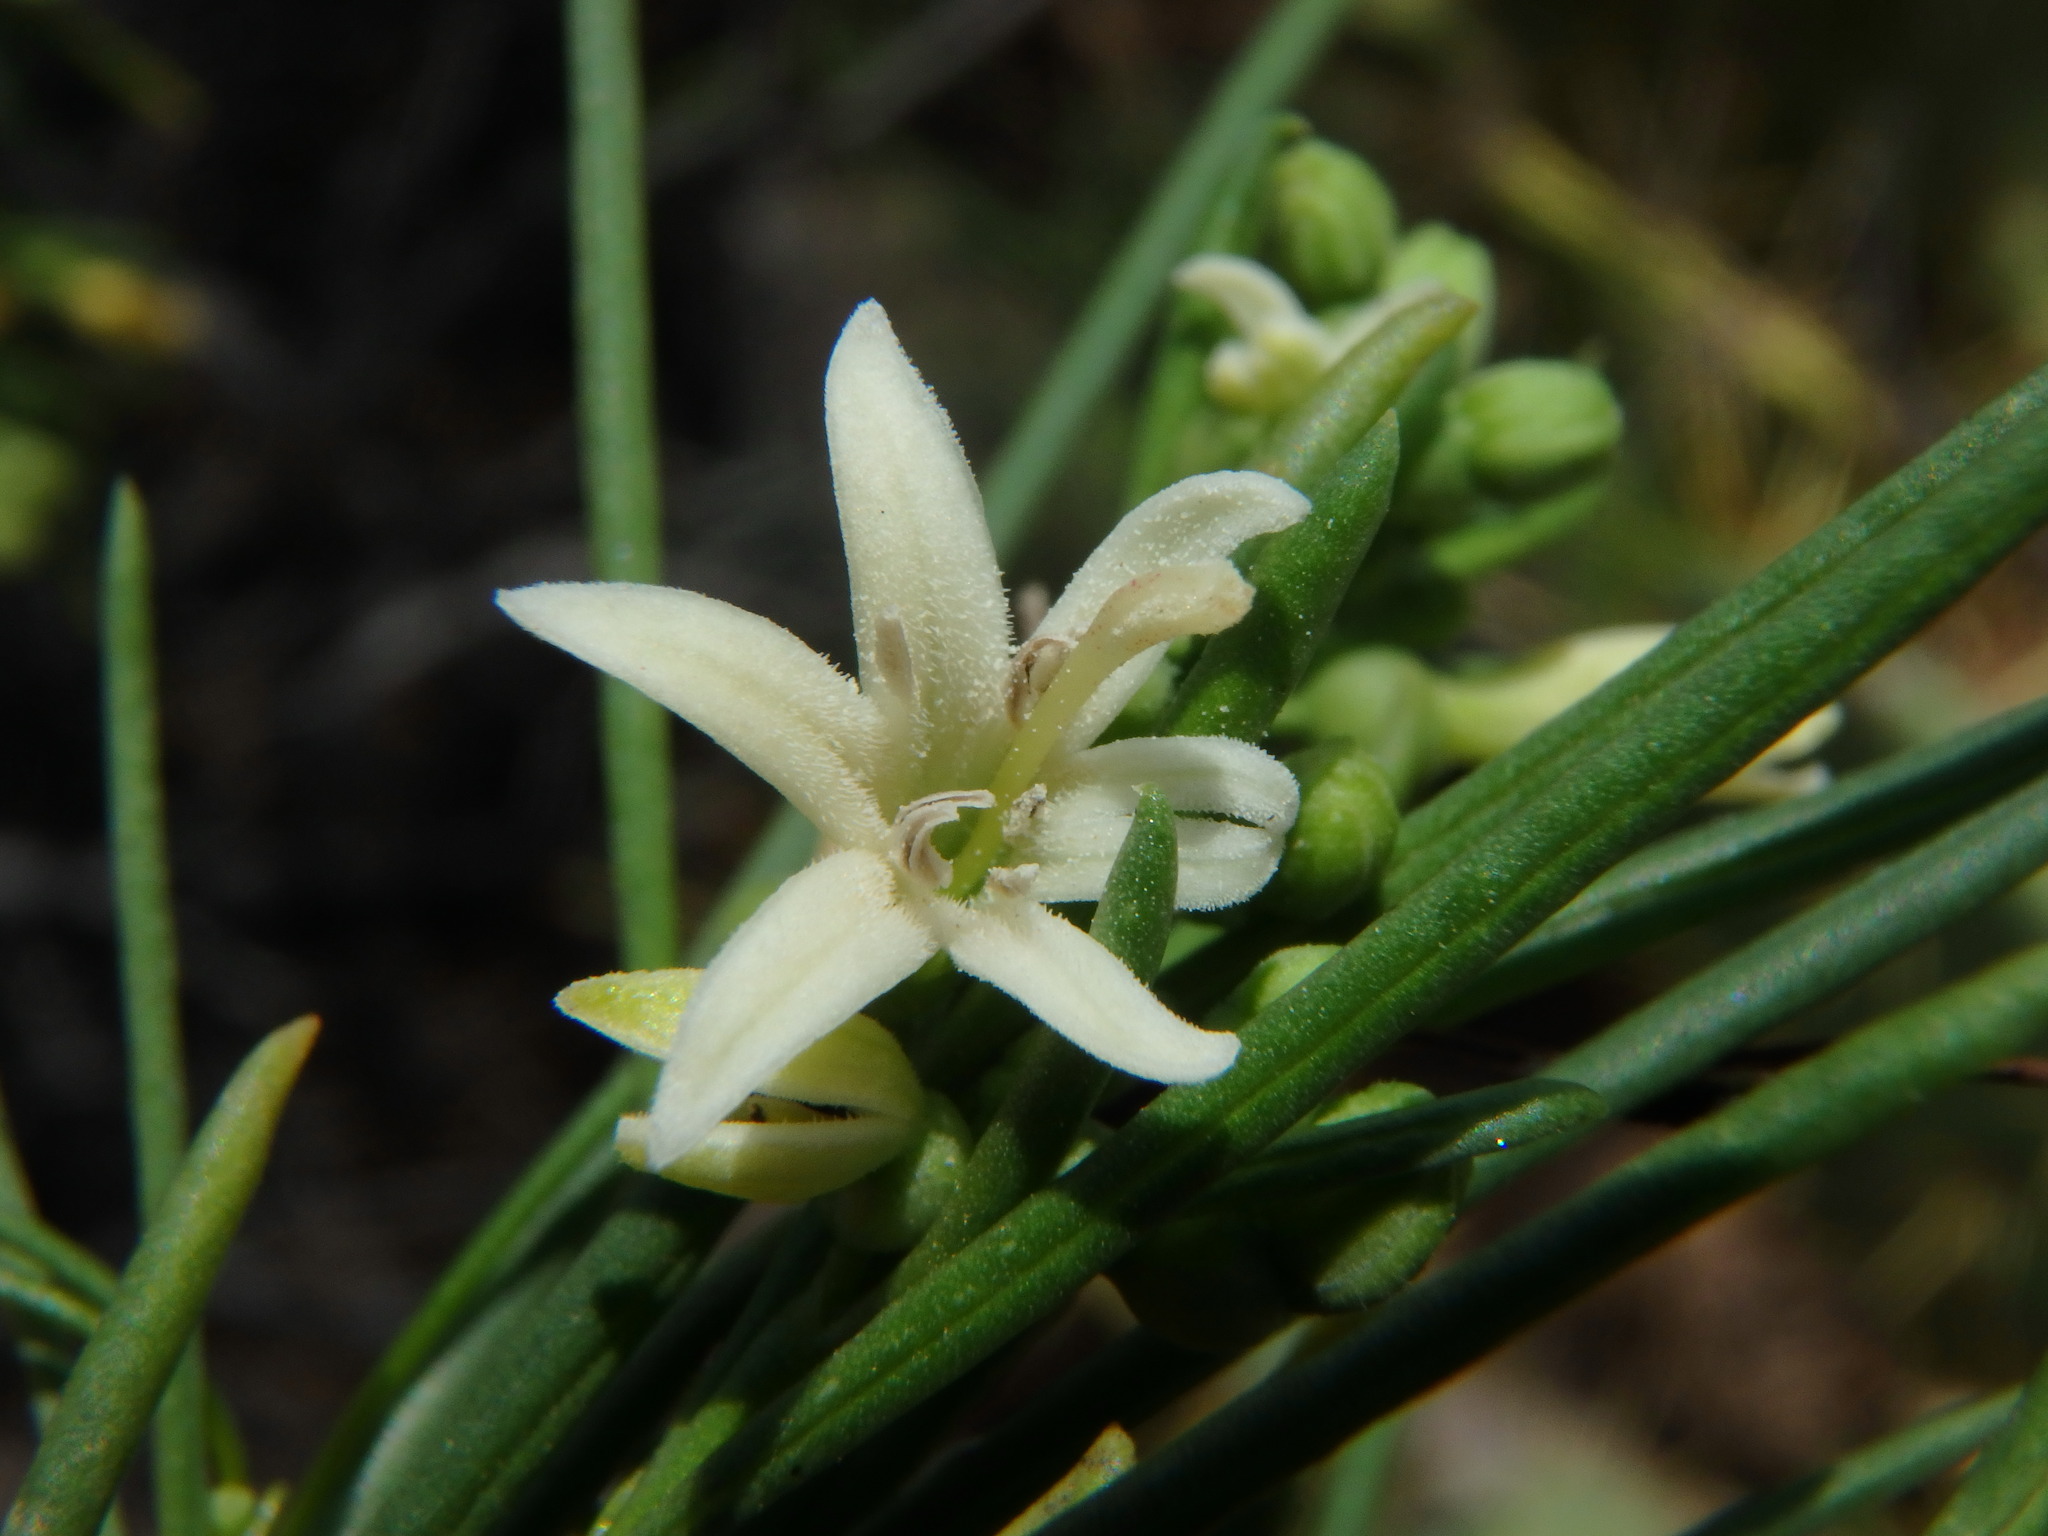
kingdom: Plantae
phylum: Tracheophyta
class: Magnoliopsida
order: Gentianales
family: Rubiaceae
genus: Plocama
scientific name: Plocama pendula
